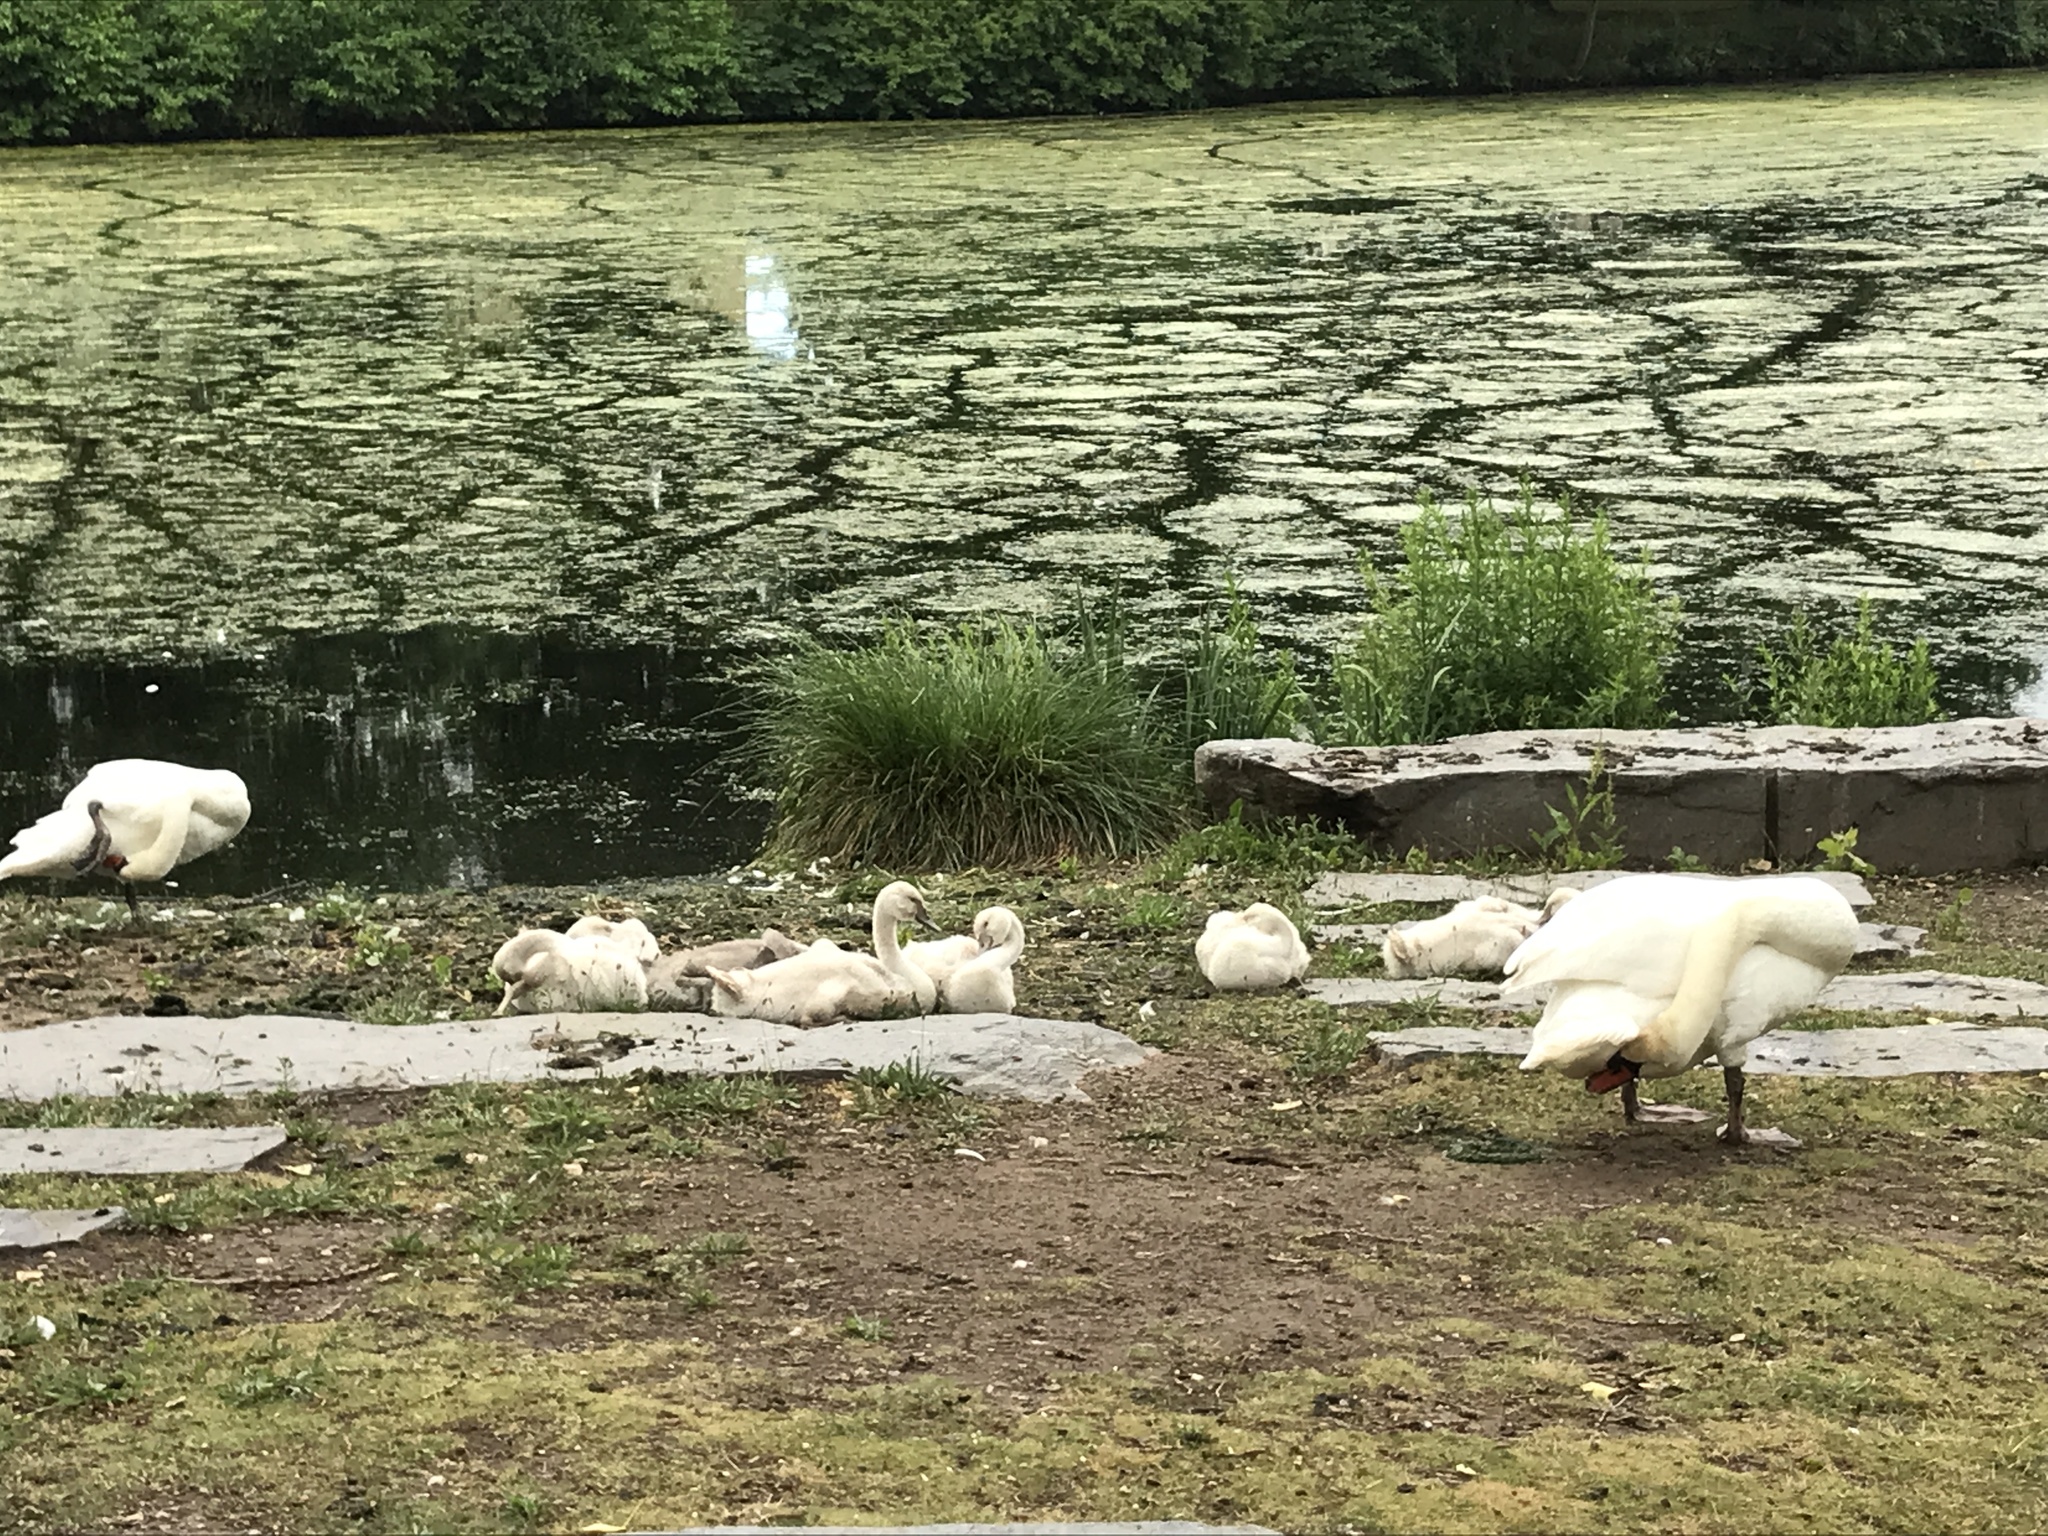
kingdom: Animalia
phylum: Chordata
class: Aves
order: Anseriformes
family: Anatidae
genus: Cygnus
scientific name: Cygnus olor
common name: Mute swan
